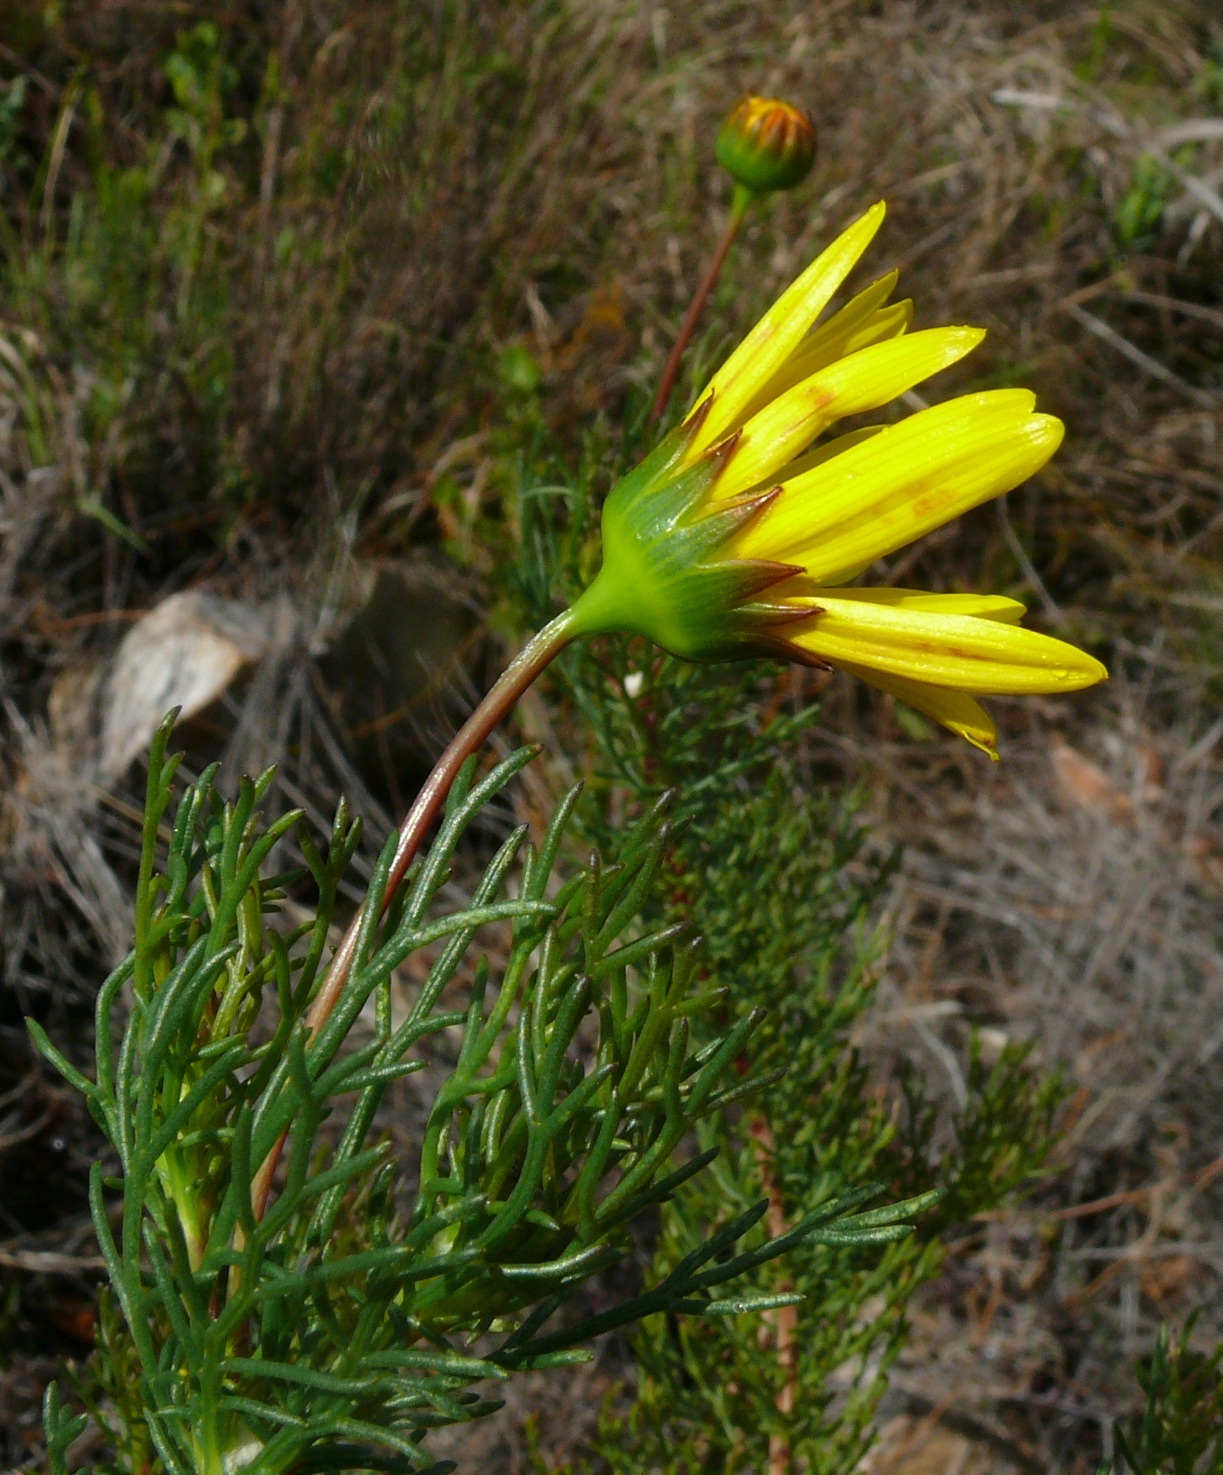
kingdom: Plantae
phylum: Tracheophyta
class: Magnoliopsida
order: Asterales
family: Asteraceae
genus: Euryops
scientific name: Euryops abrotanifolius
